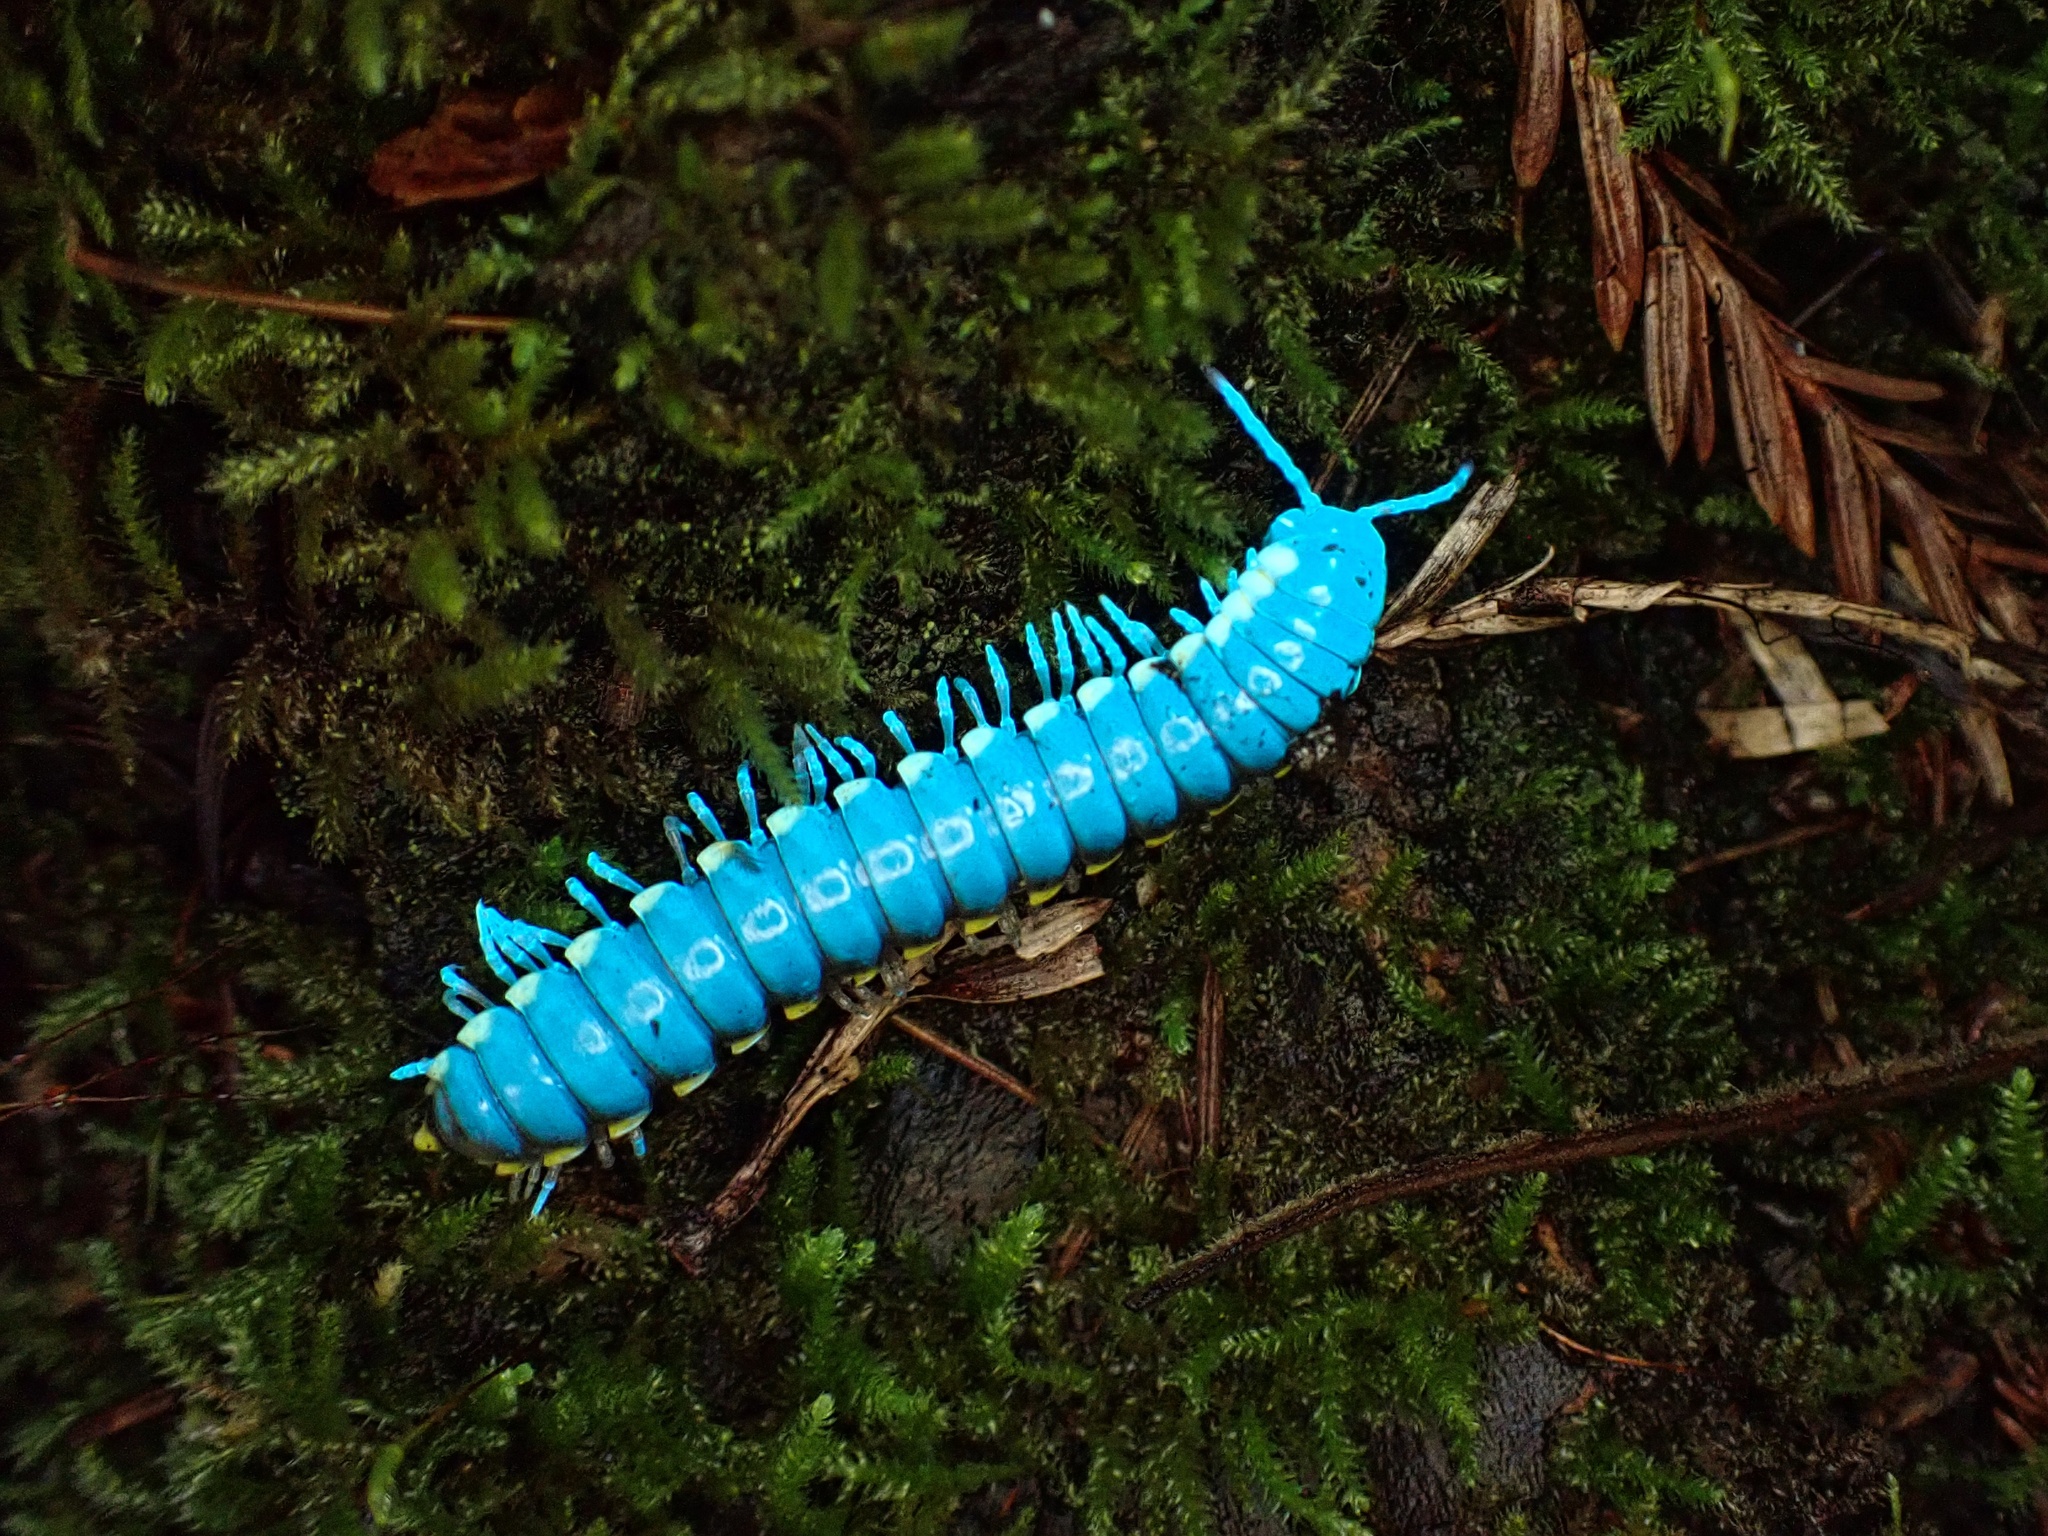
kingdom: Animalia
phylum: Arthropoda
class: Diplopoda
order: Polydesmida
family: Xystodesmidae
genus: Harpaphe
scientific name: Harpaphe haydeniana
